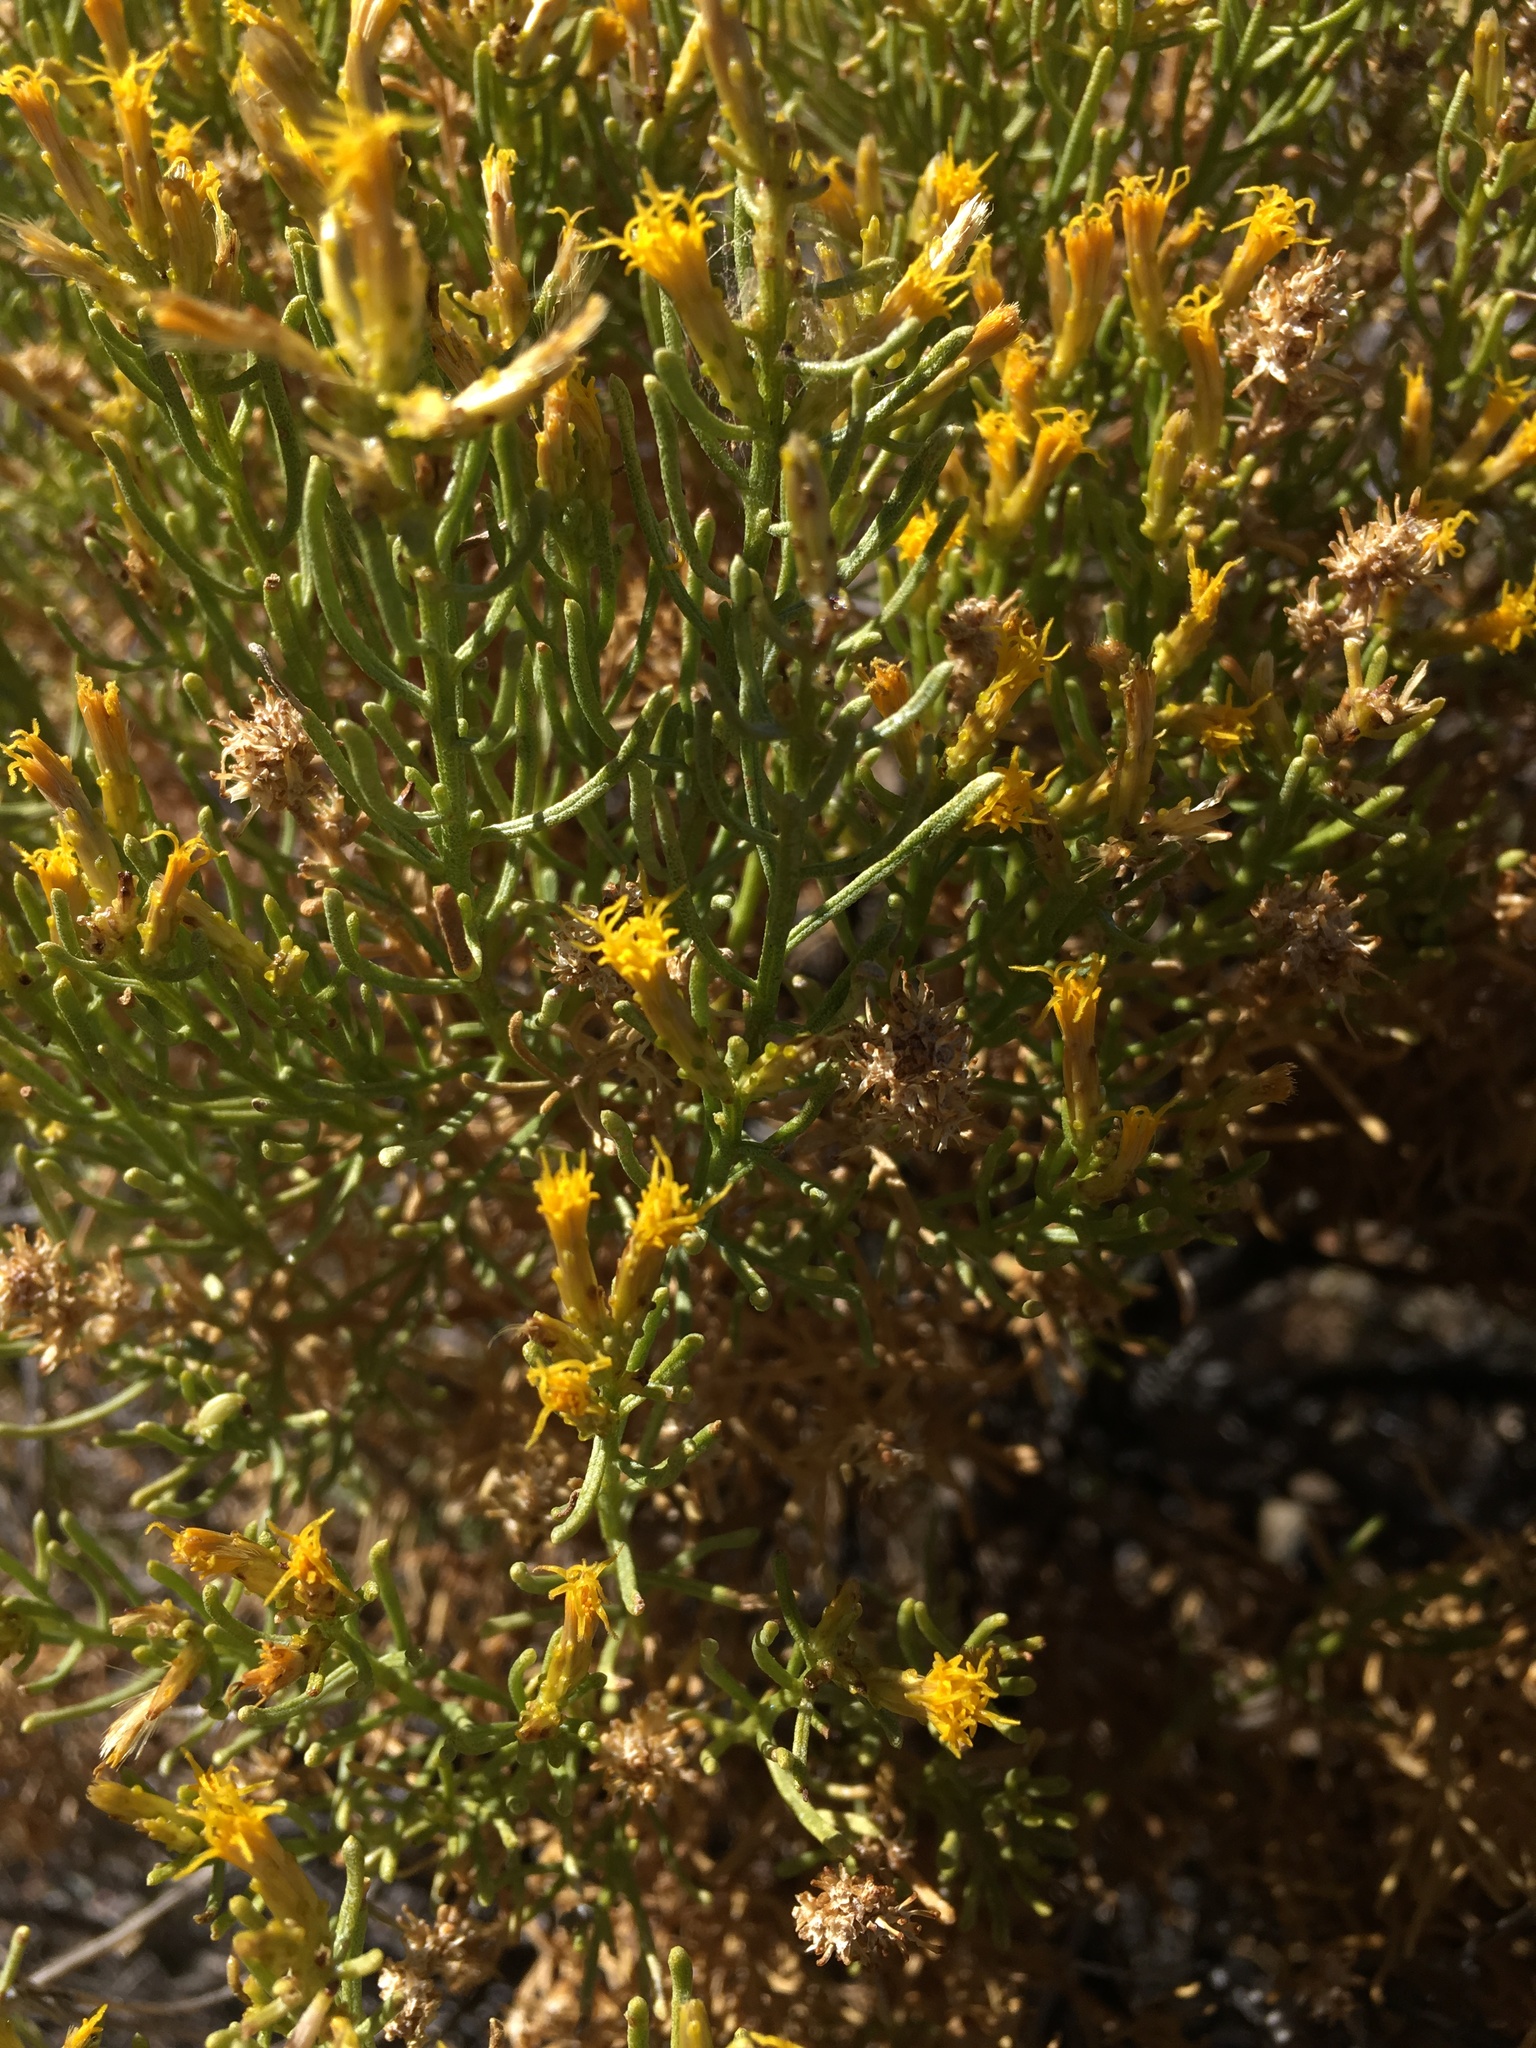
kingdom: Plantae
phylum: Tracheophyta
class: Magnoliopsida
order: Asterales
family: Asteraceae
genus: Ericameria
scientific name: Ericameria teretifolia
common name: Round-leaf rabbitbrush
